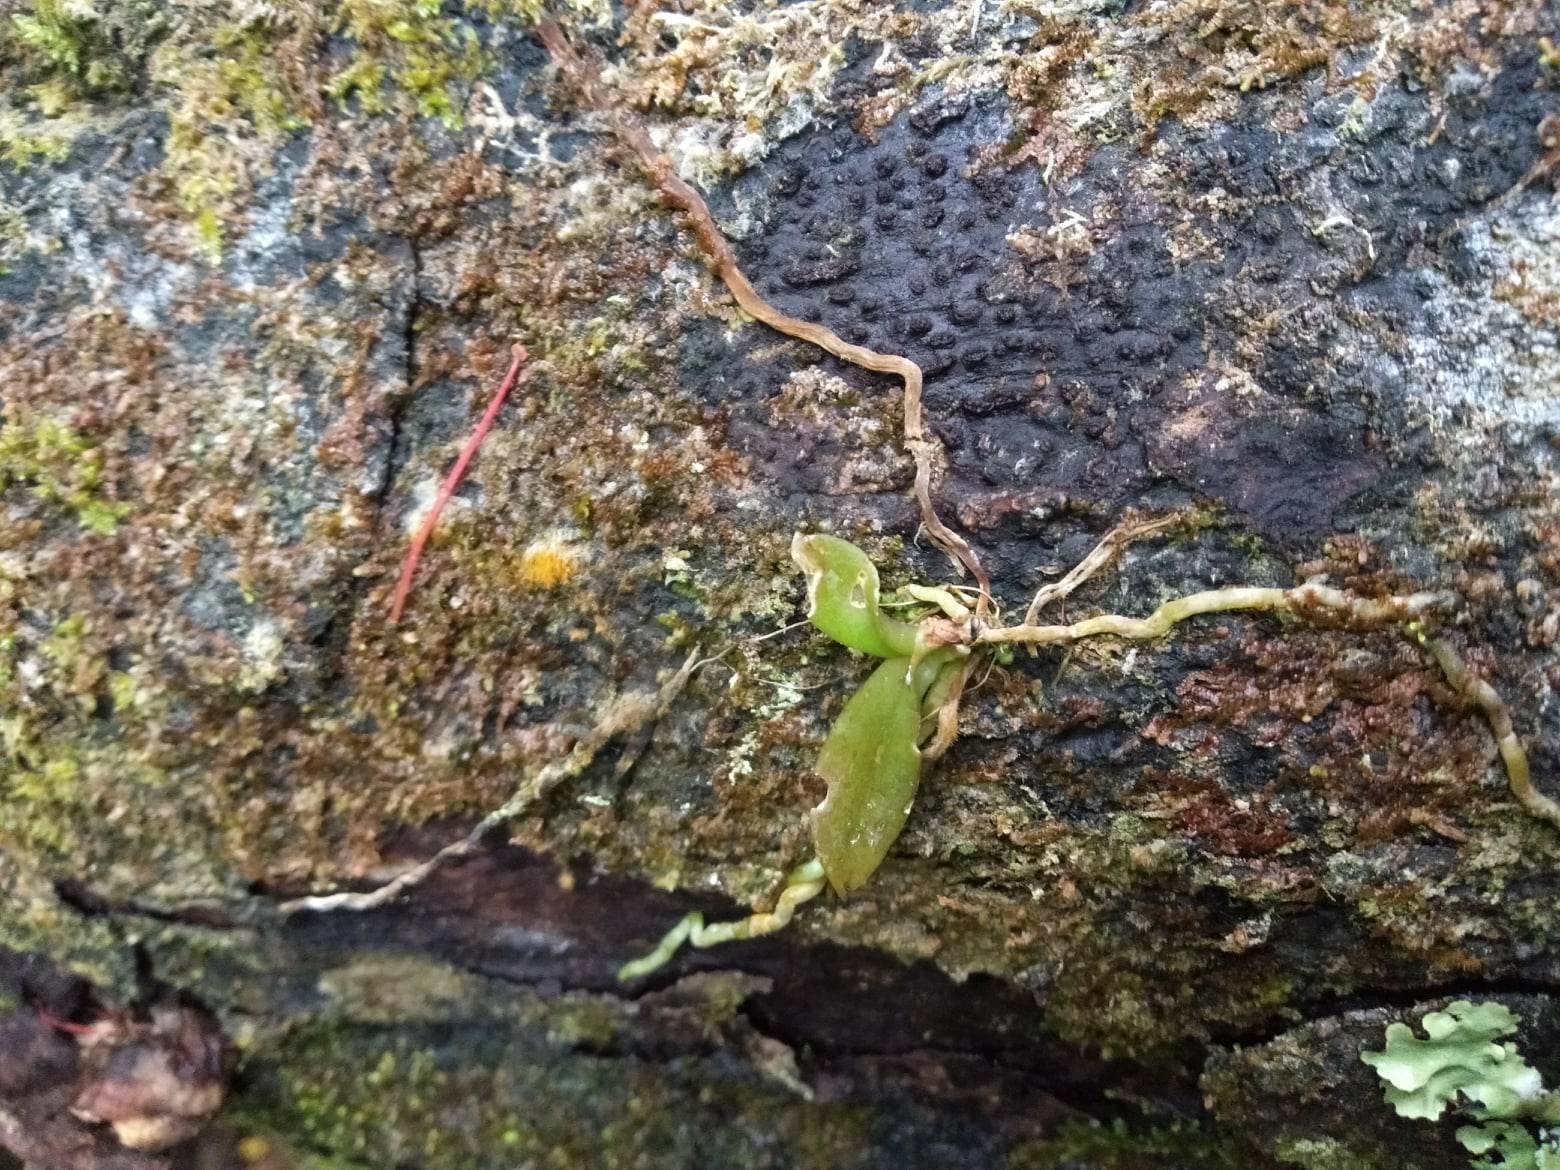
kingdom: Plantae
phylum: Tracheophyta
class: Liliopsida
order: Asparagales
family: Orchidaceae
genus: Drymoanthus
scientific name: Drymoanthus adversus
